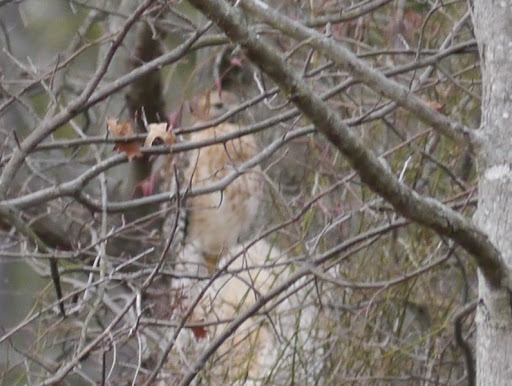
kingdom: Animalia
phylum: Chordata
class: Aves
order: Accipitriformes
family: Accipitridae
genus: Buteo
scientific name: Buteo lineatus
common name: Red-shouldered hawk
